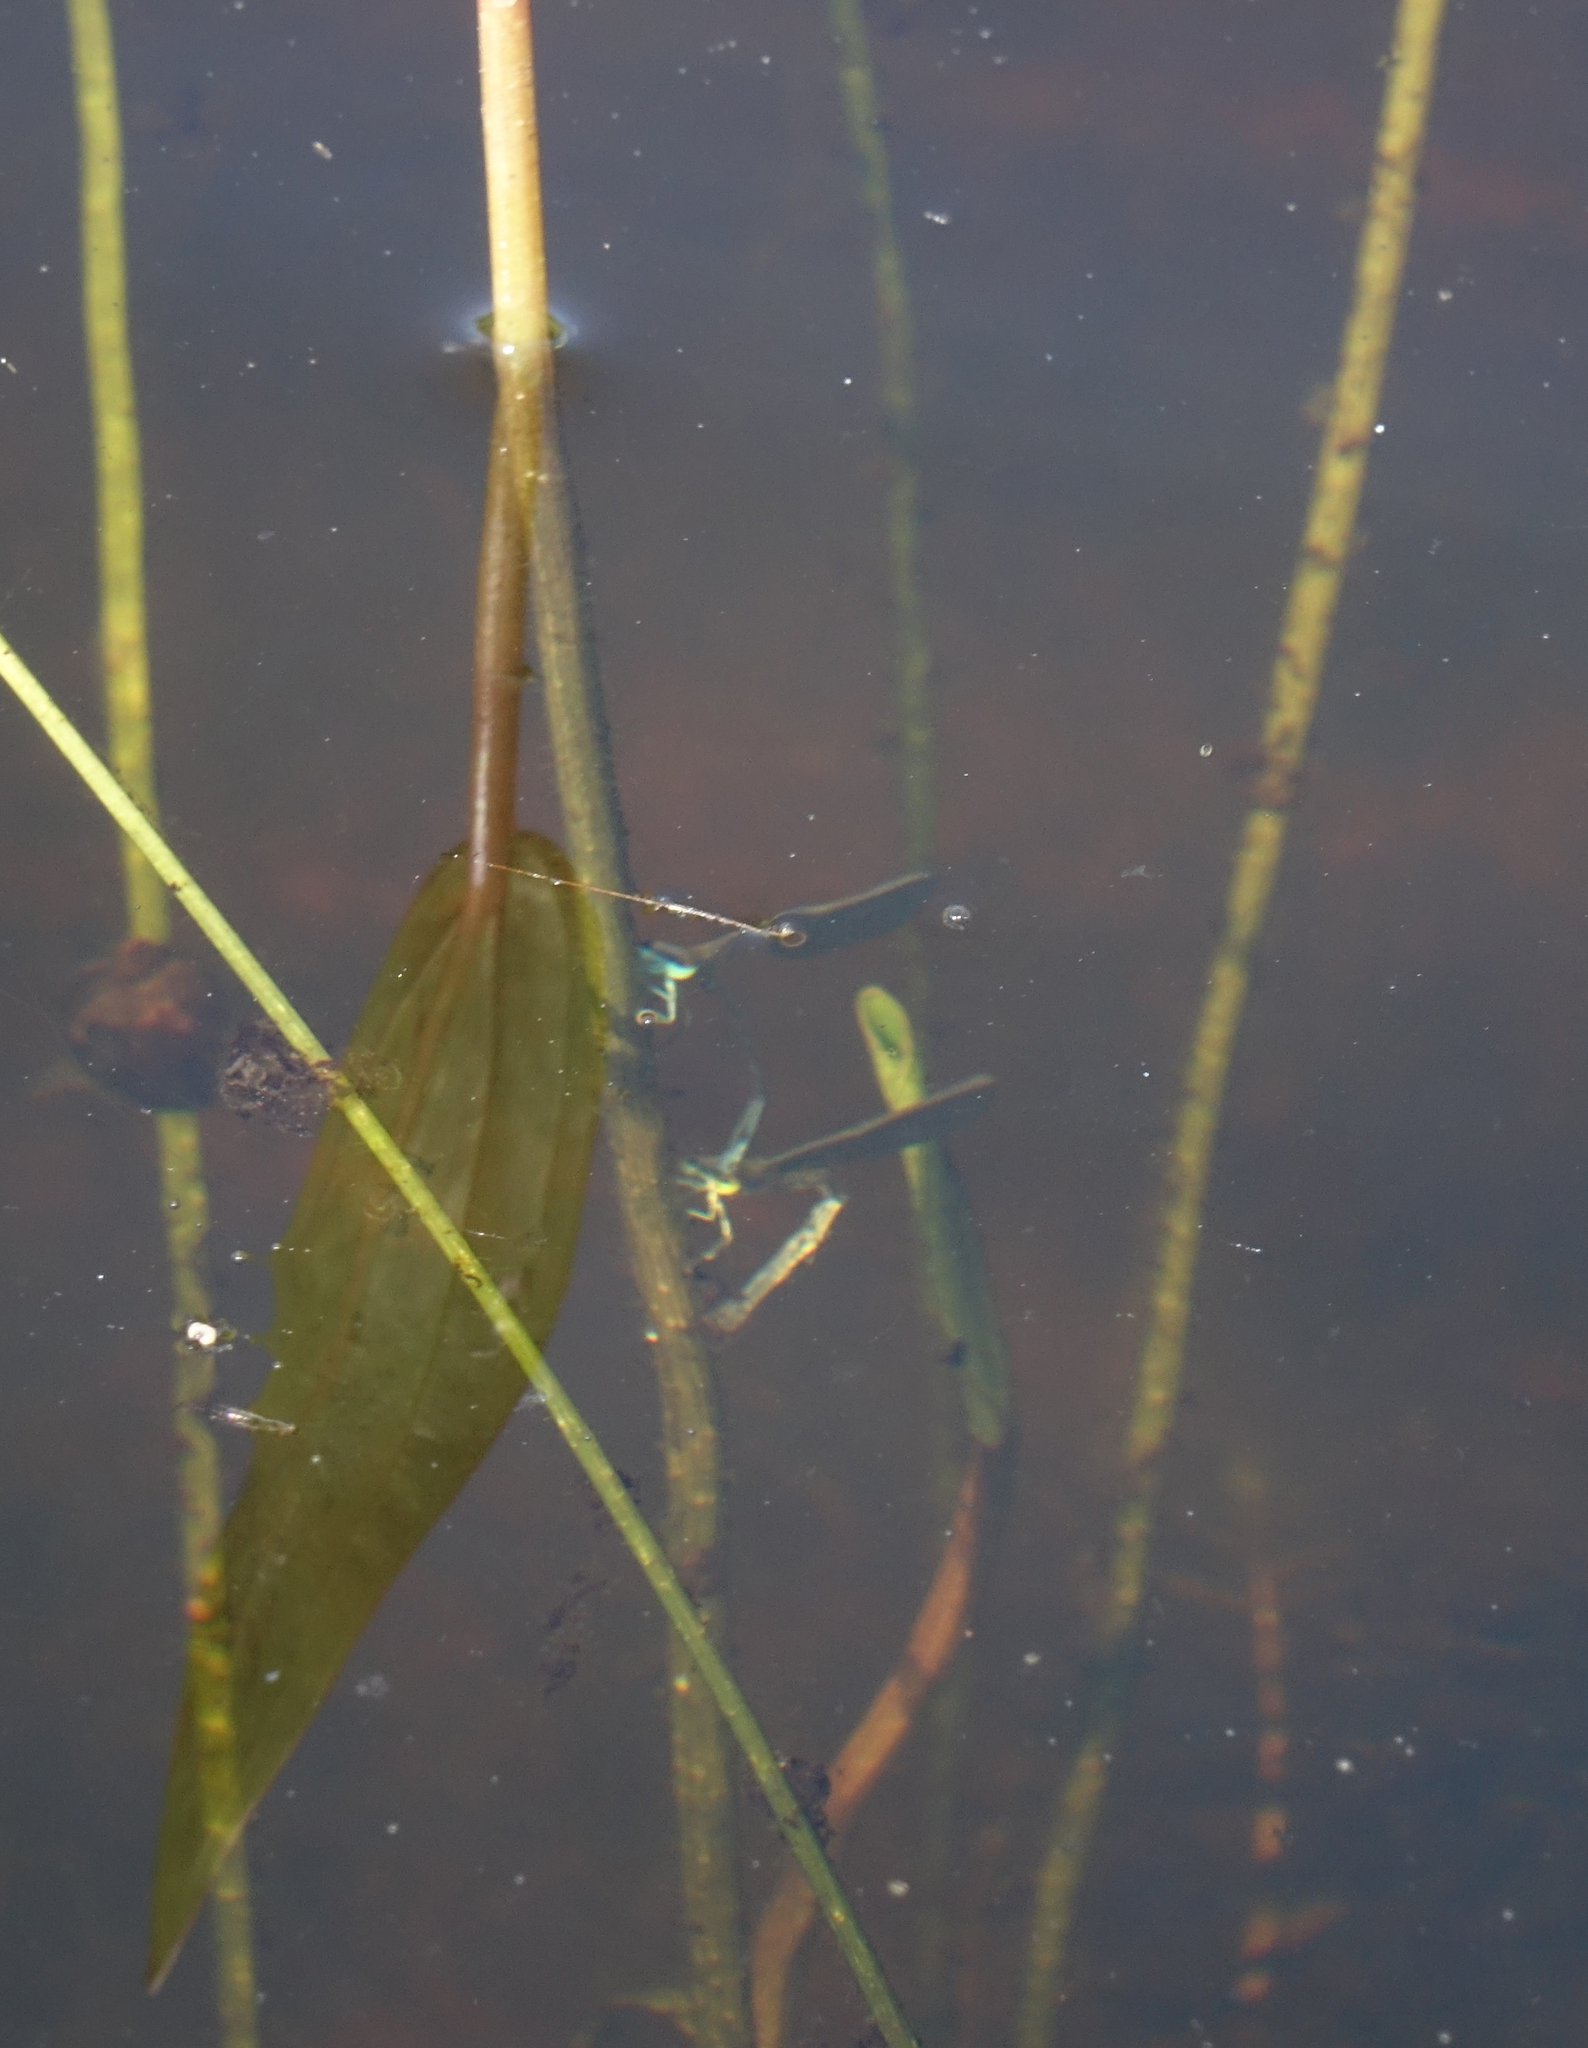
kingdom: Animalia
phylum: Arthropoda
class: Insecta
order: Odonata
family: Coenagrionidae
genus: Coenagrion
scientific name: Coenagrion hastulatum
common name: Spearhead bluet
